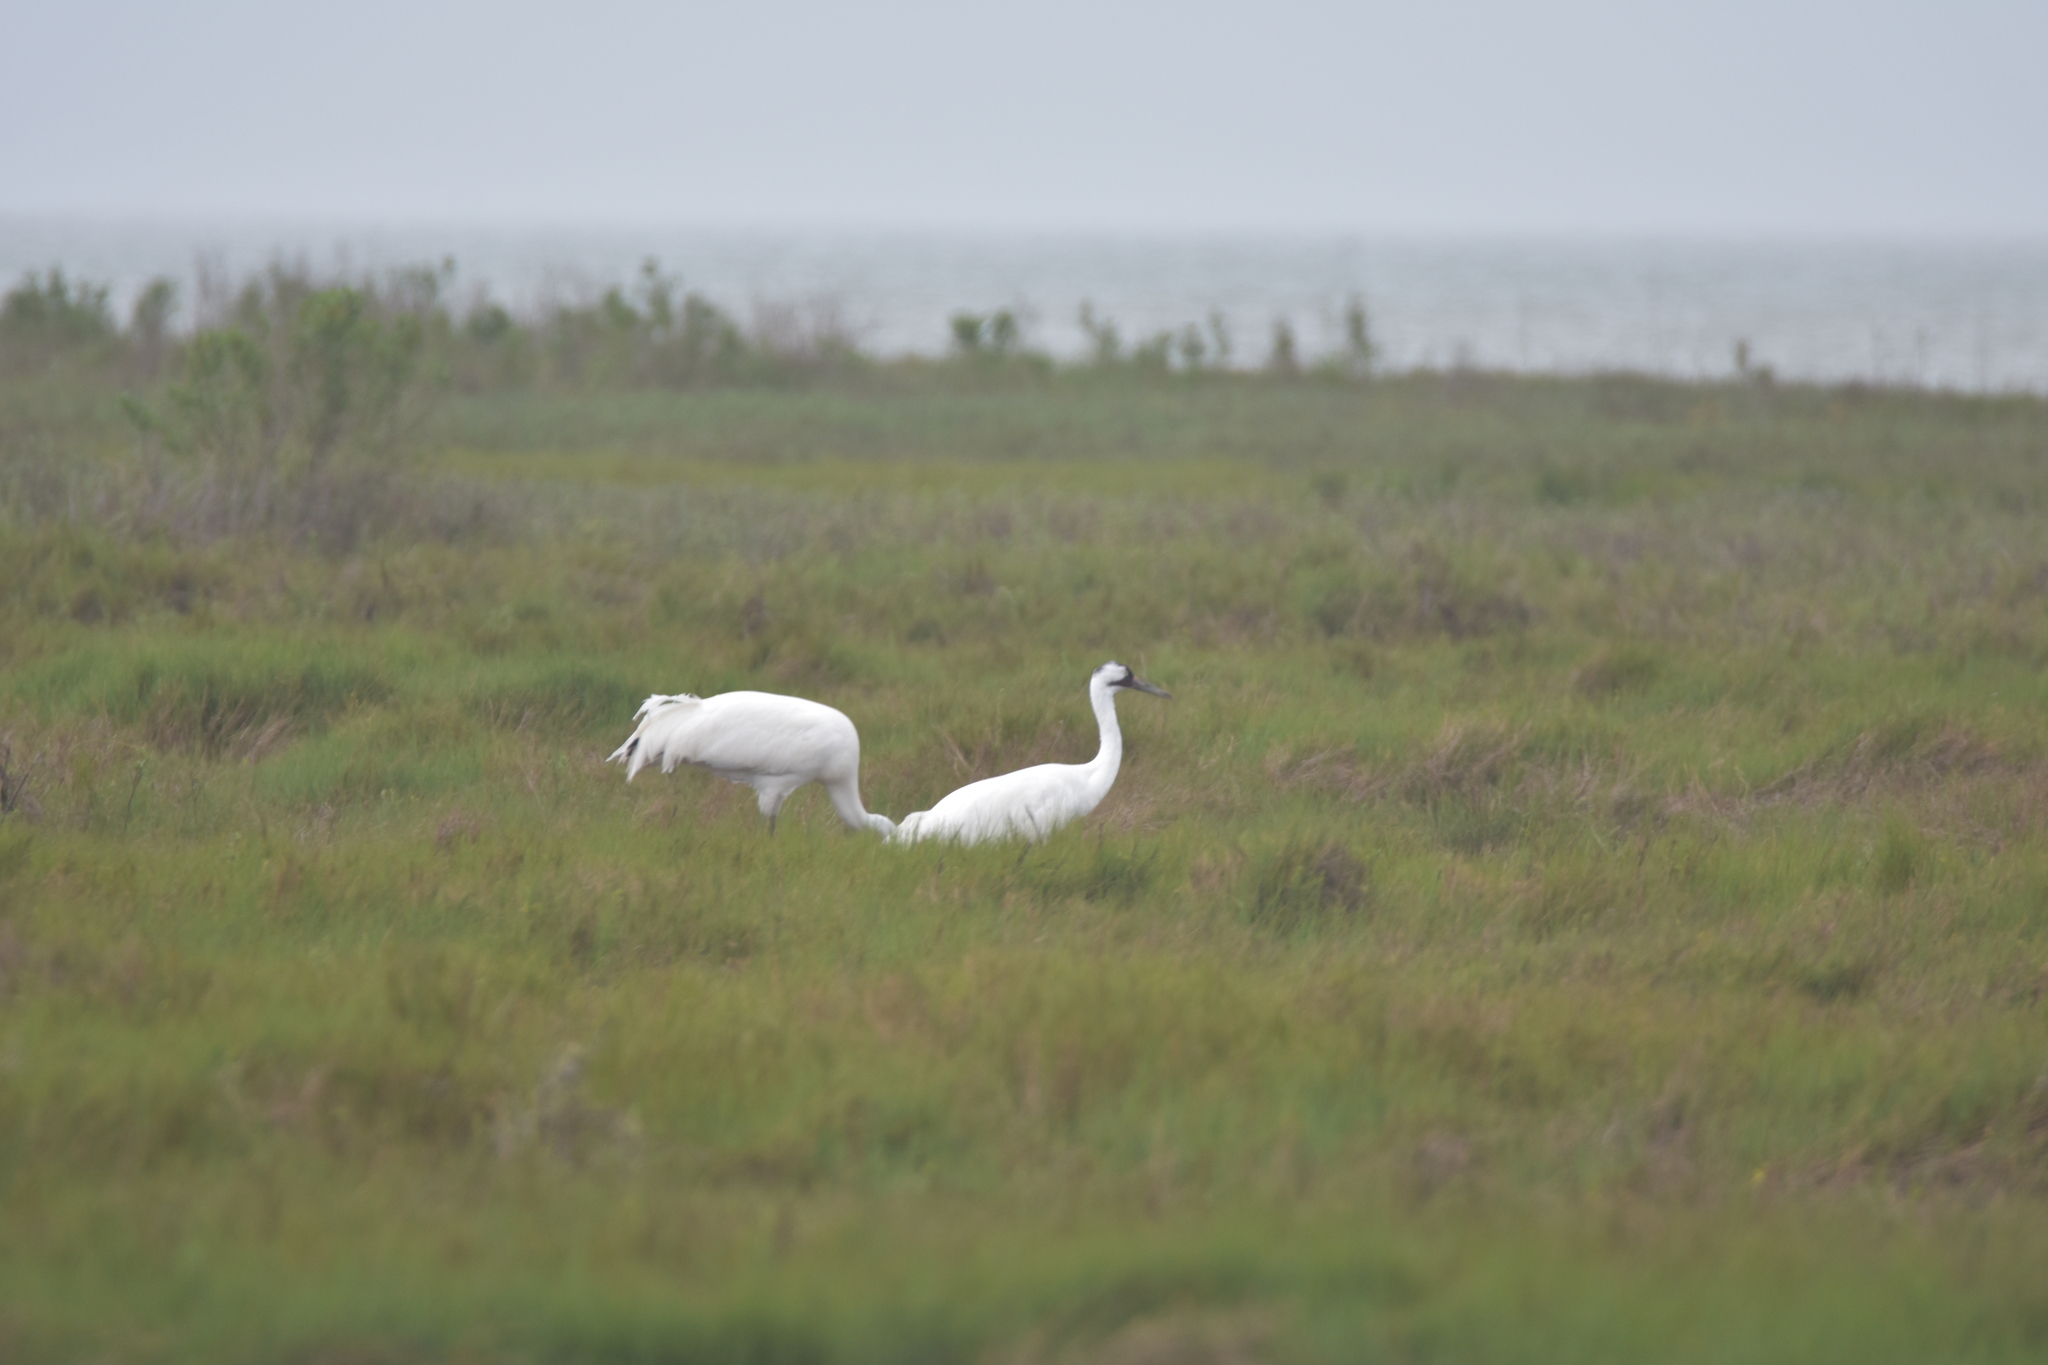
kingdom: Animalia
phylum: Chordata
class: Aves
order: Gruiformes
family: Gruidae
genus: Grus
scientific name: Grus americana
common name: Whooping crane
